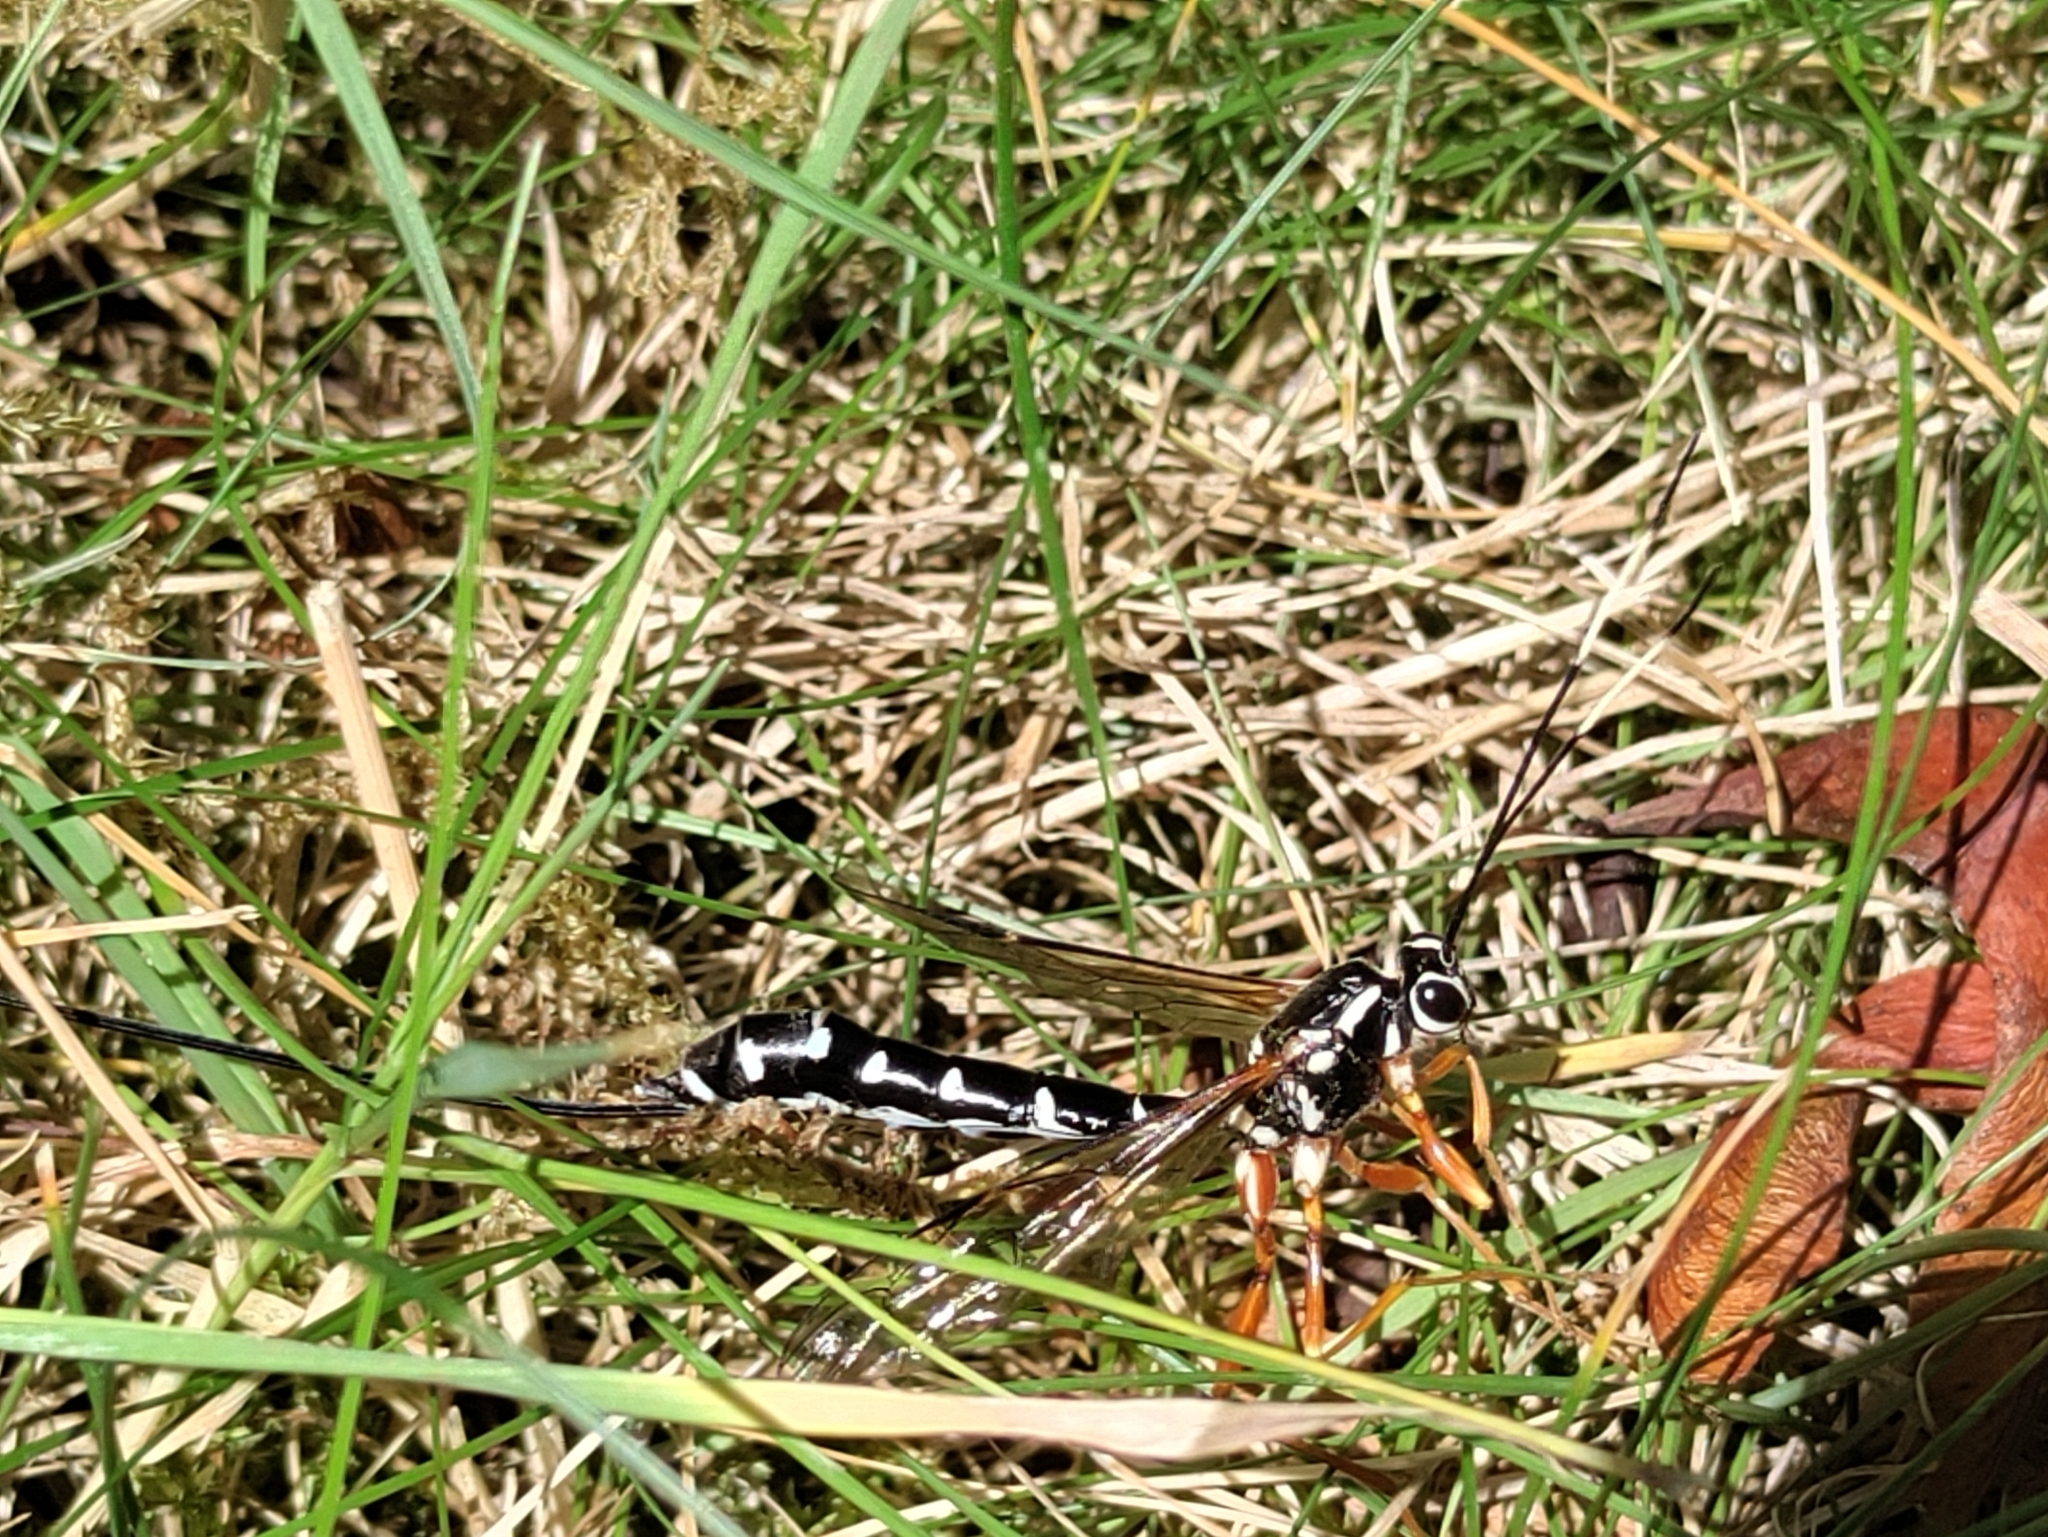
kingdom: Animalia
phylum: Arthropoda
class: Insecta
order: Hymenoptera
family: Ichneumonidae
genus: Rhyssa
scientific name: Rhyssa lineolata
